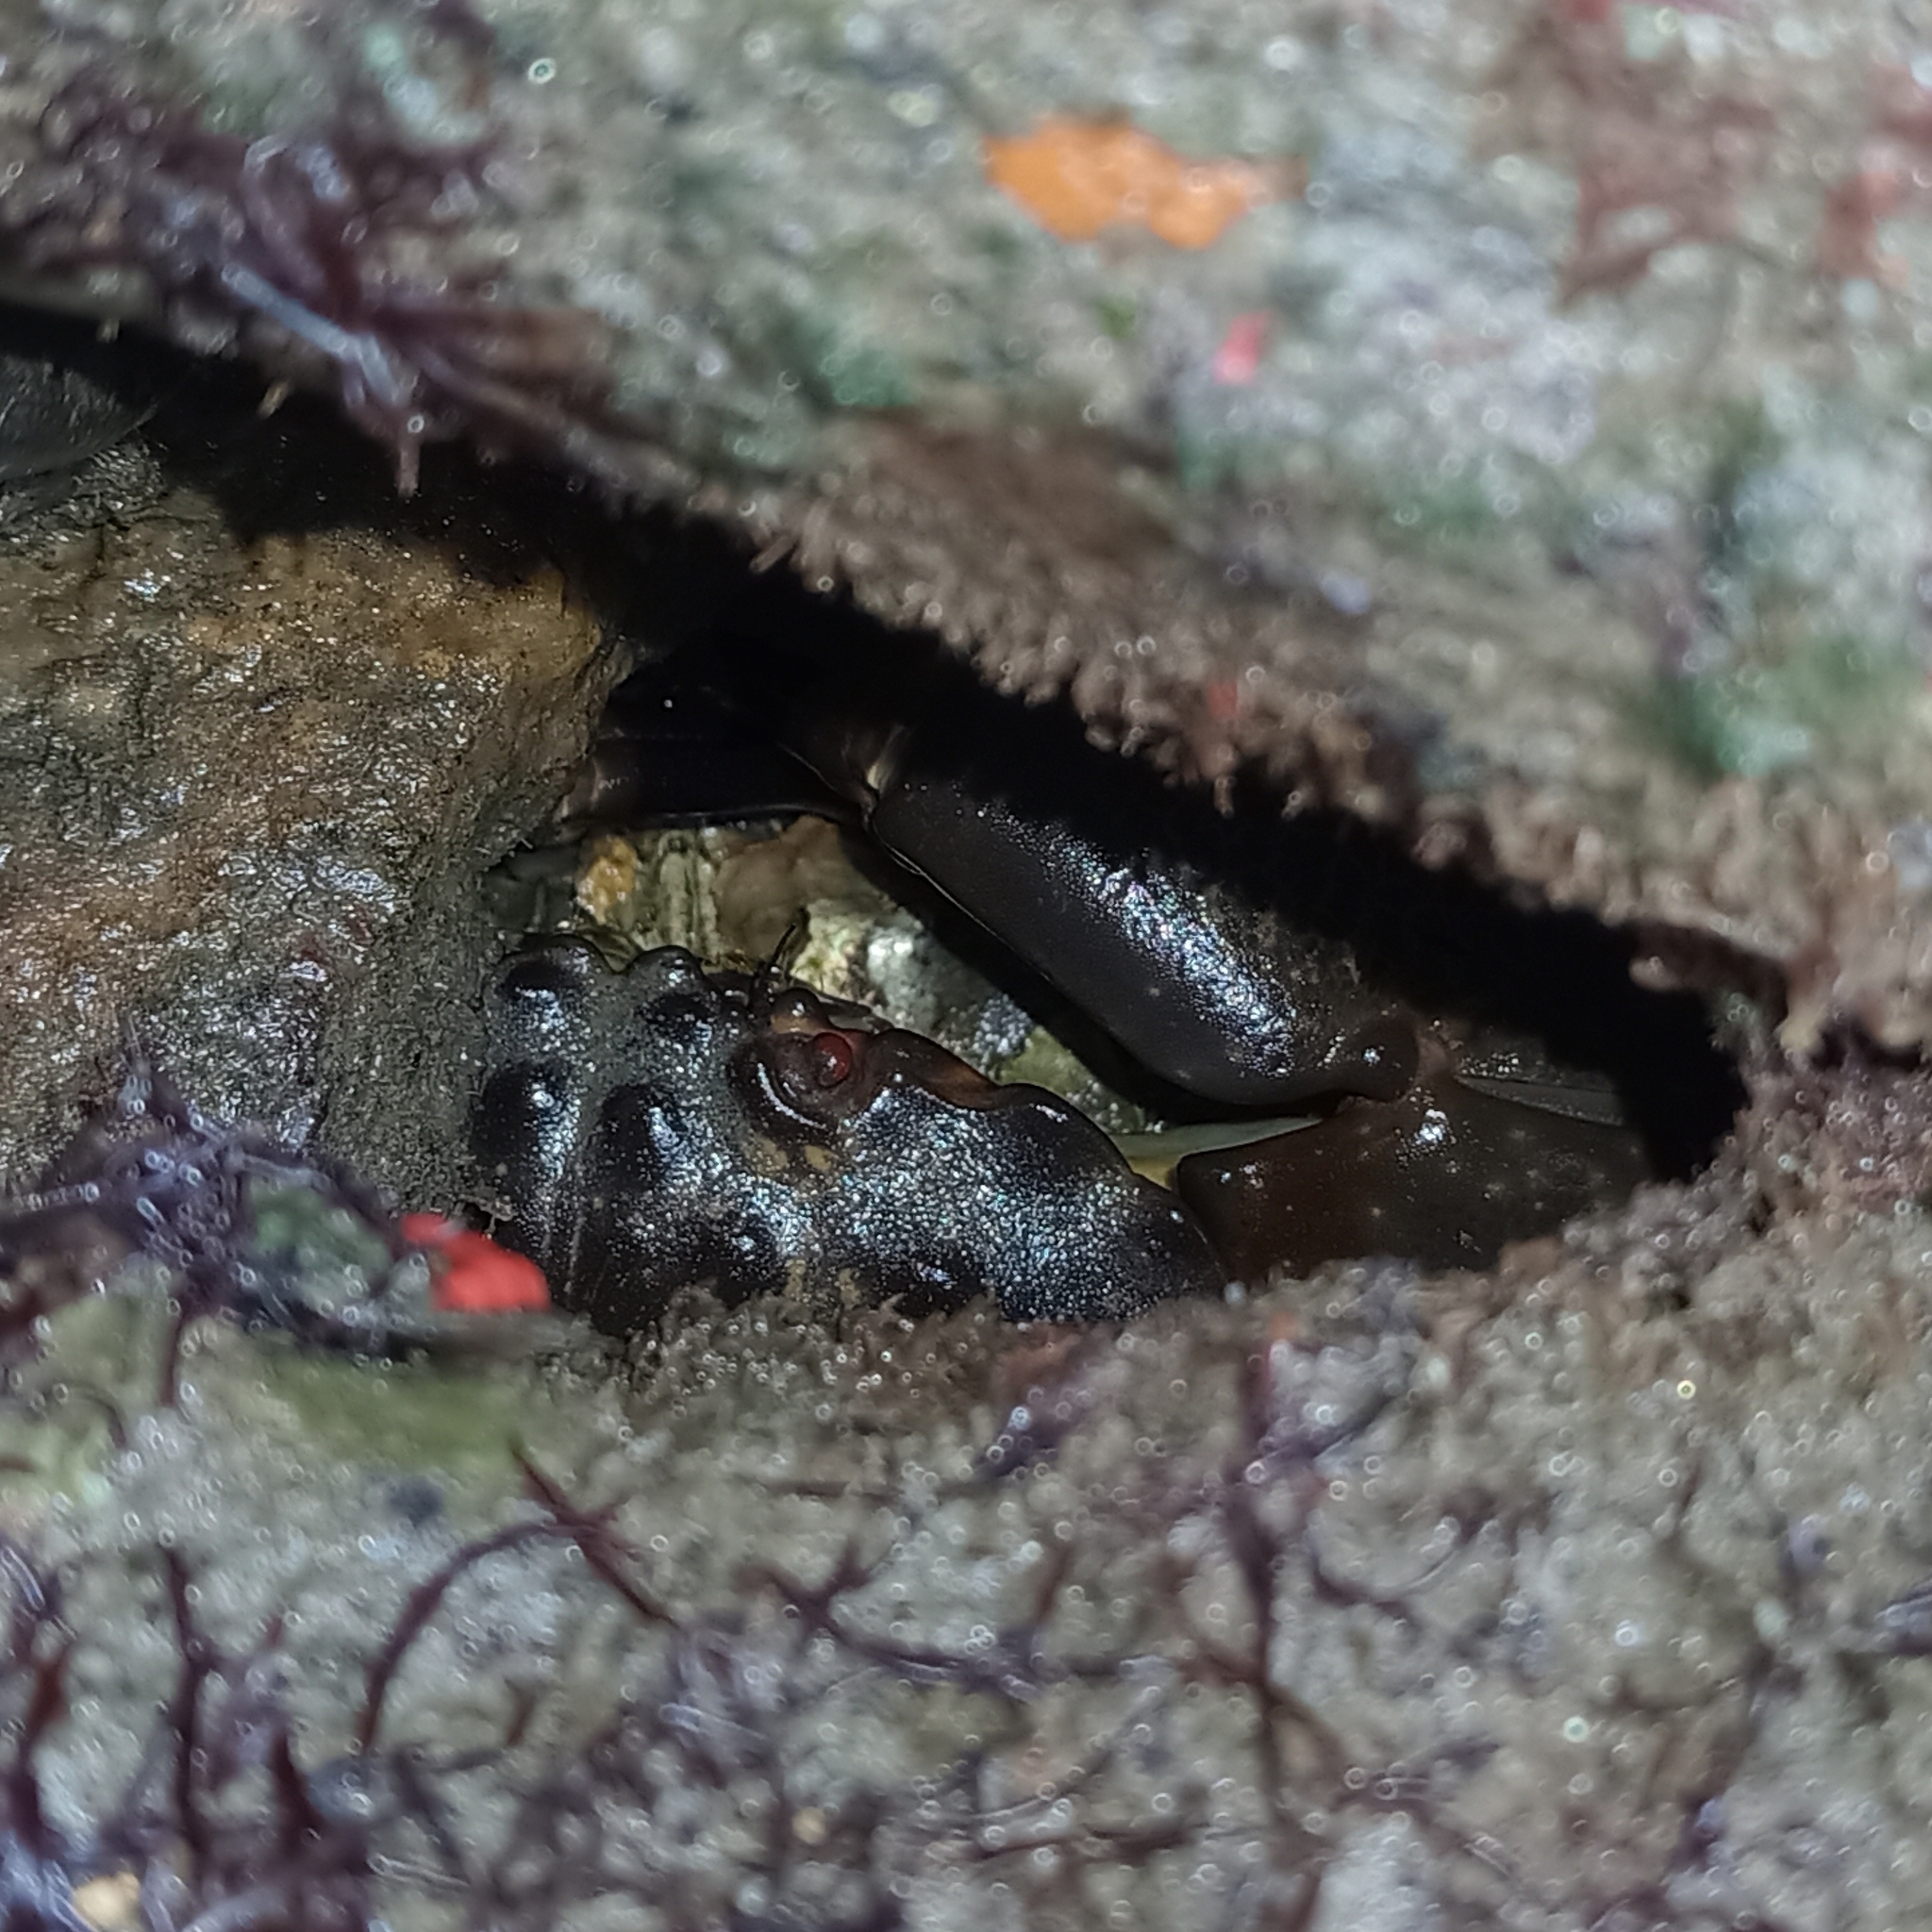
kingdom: Animalia
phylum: Arthropoda
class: Malacostraca
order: Decapoda
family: Menippidae
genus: Menippe
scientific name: Menippe nodifrons
